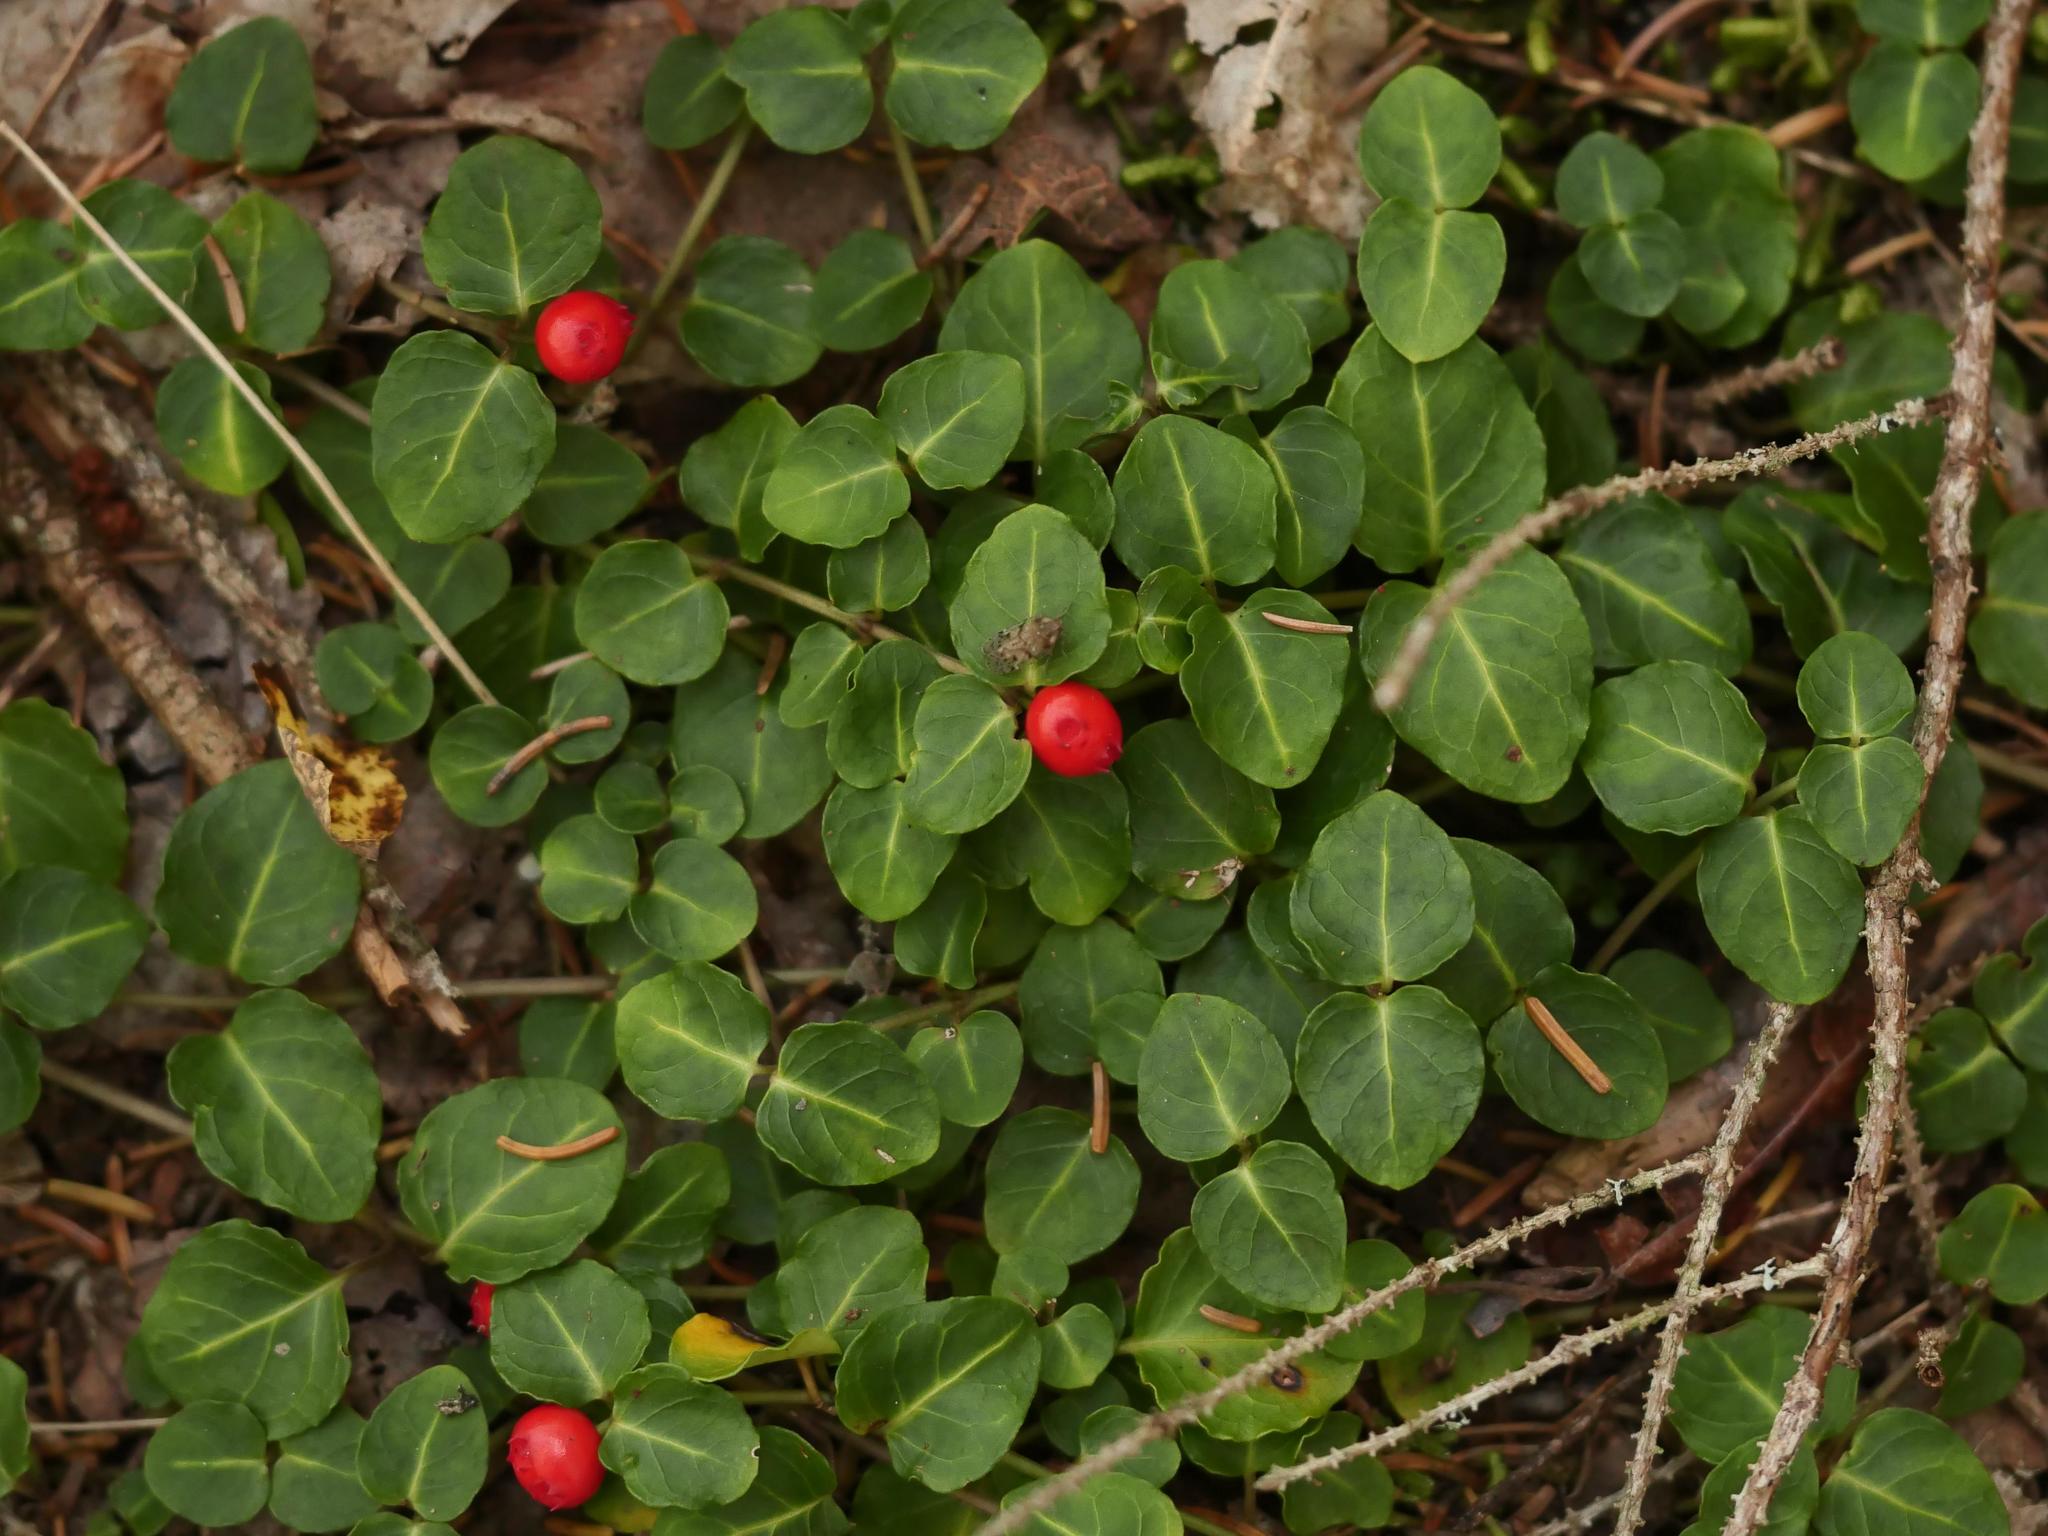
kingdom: Plantae
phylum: Tracheophyta
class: Magnoliopsida
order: Gentianales
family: Rubiaceae
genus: Mitchella
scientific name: Mitchella repens
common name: Partridge-berry
